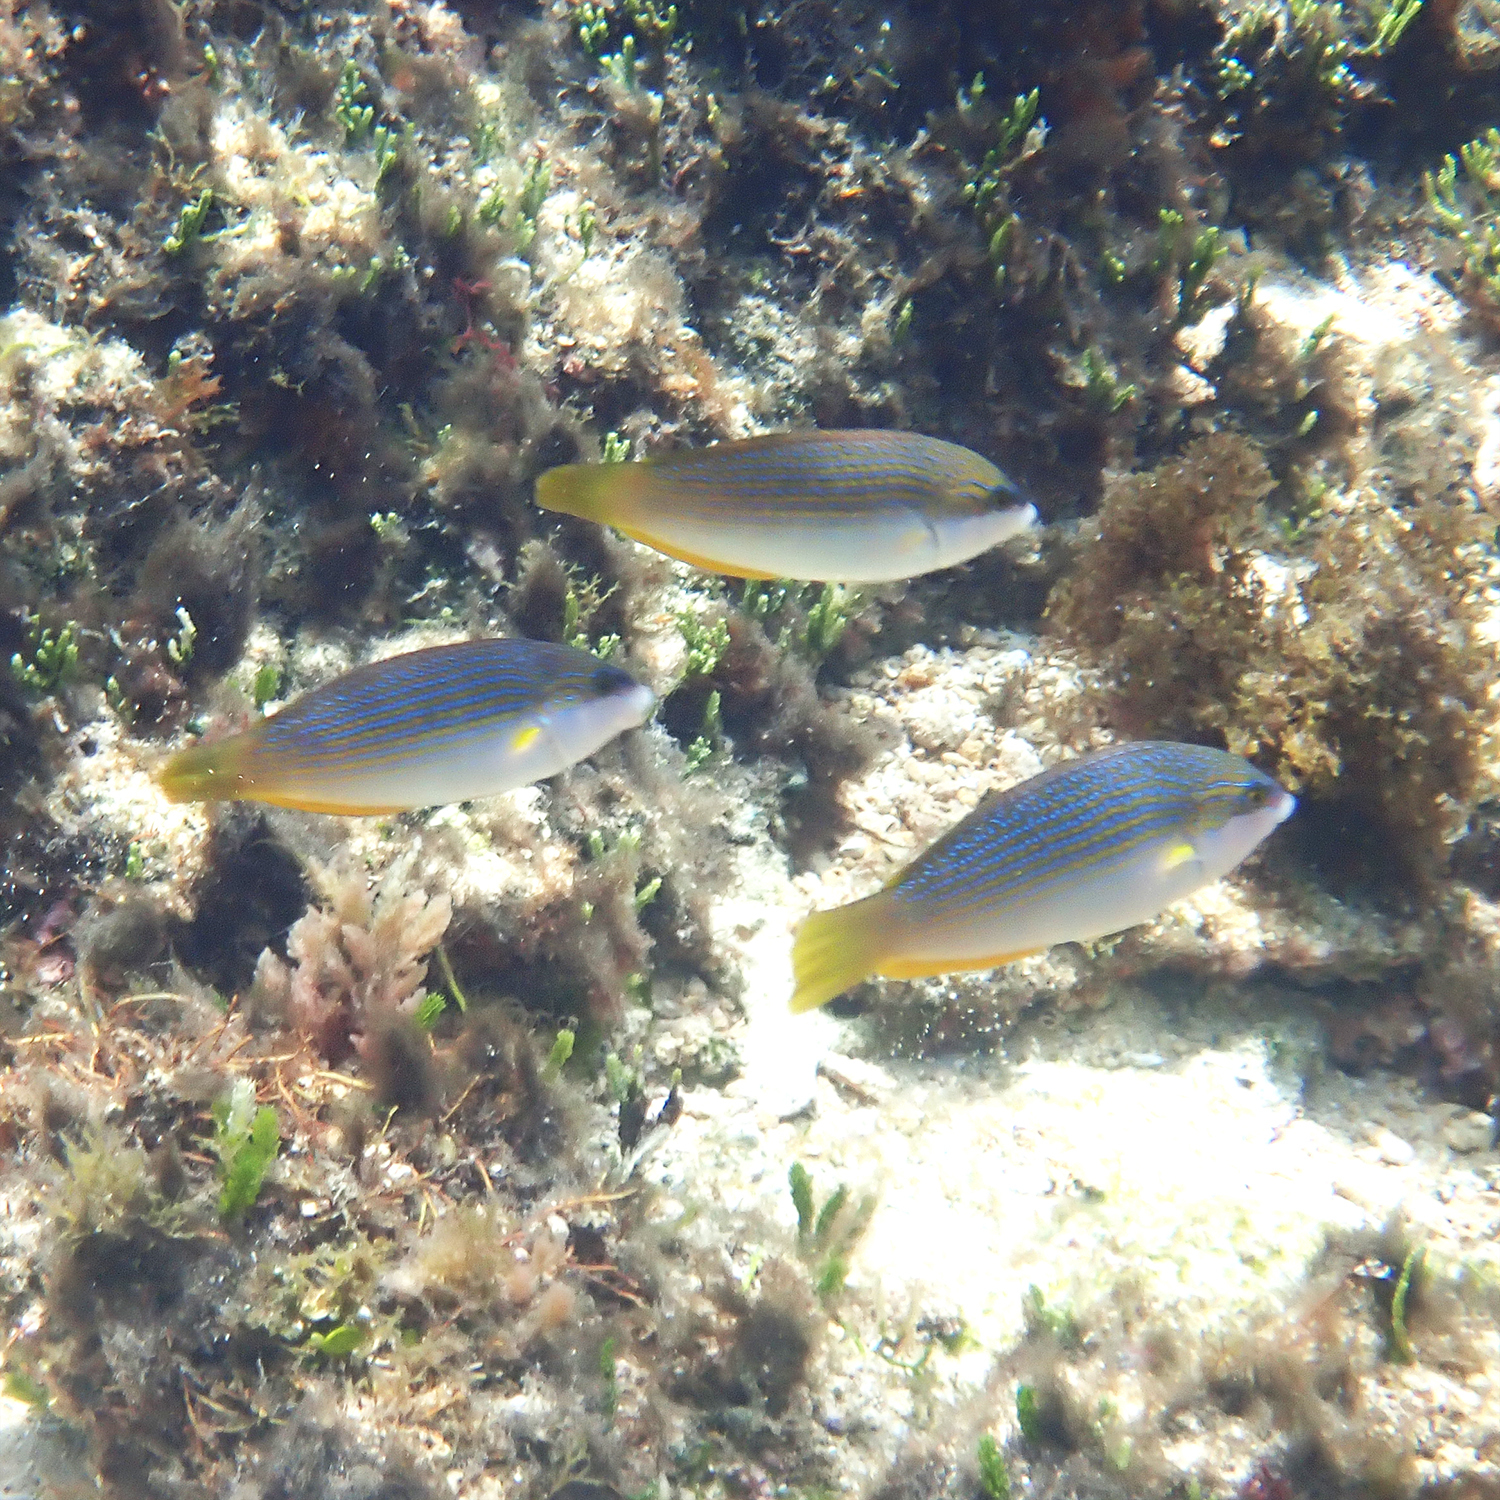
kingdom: Animalia
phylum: Chordata
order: Perciformes
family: Labridae
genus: Anampses
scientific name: Anampses elegans
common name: Elegant wrasse
